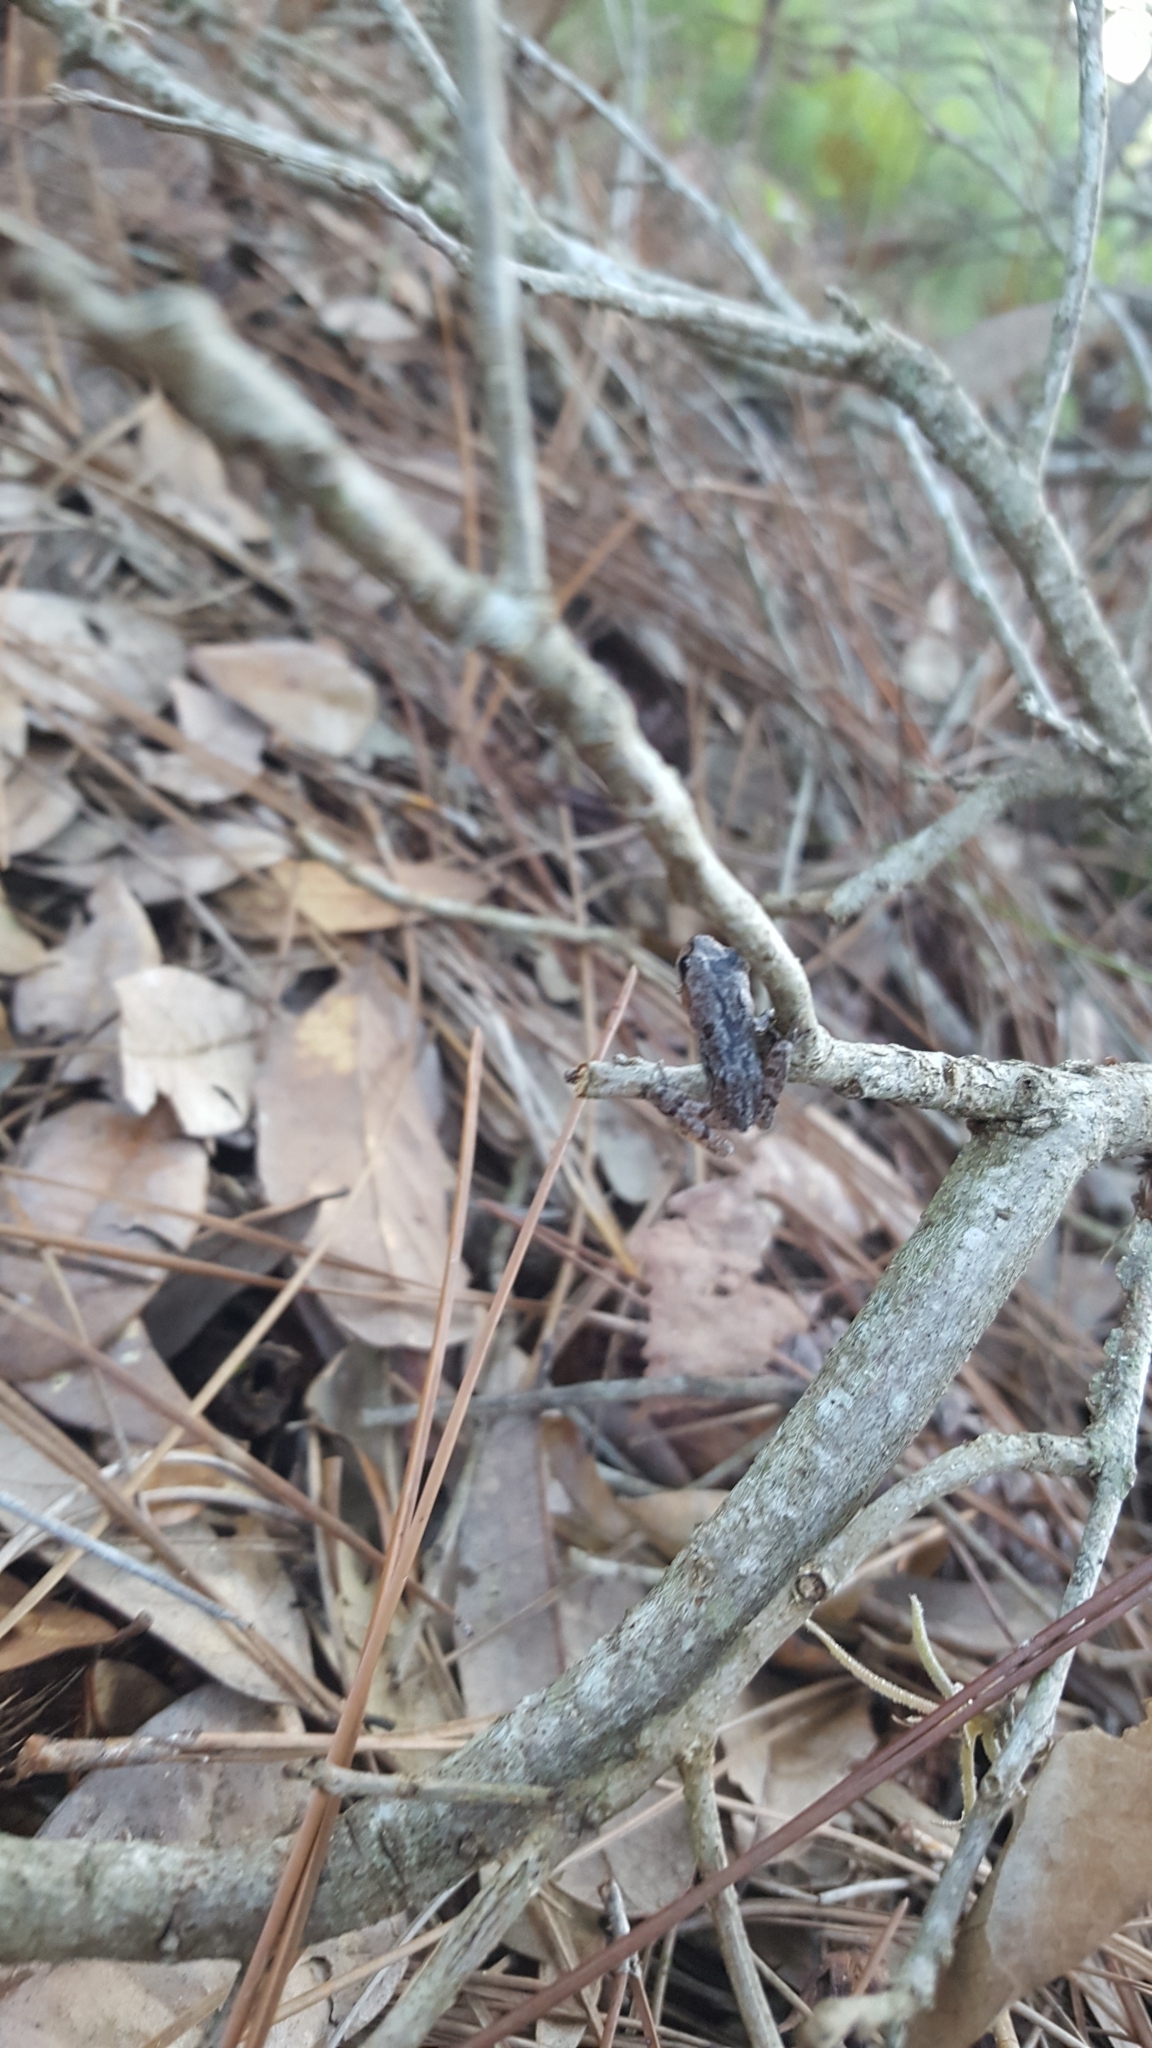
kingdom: Animalia
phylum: Chordata
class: Amphibia
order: Anura
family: Hylidae
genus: Hyla
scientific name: Hyla femoralis
